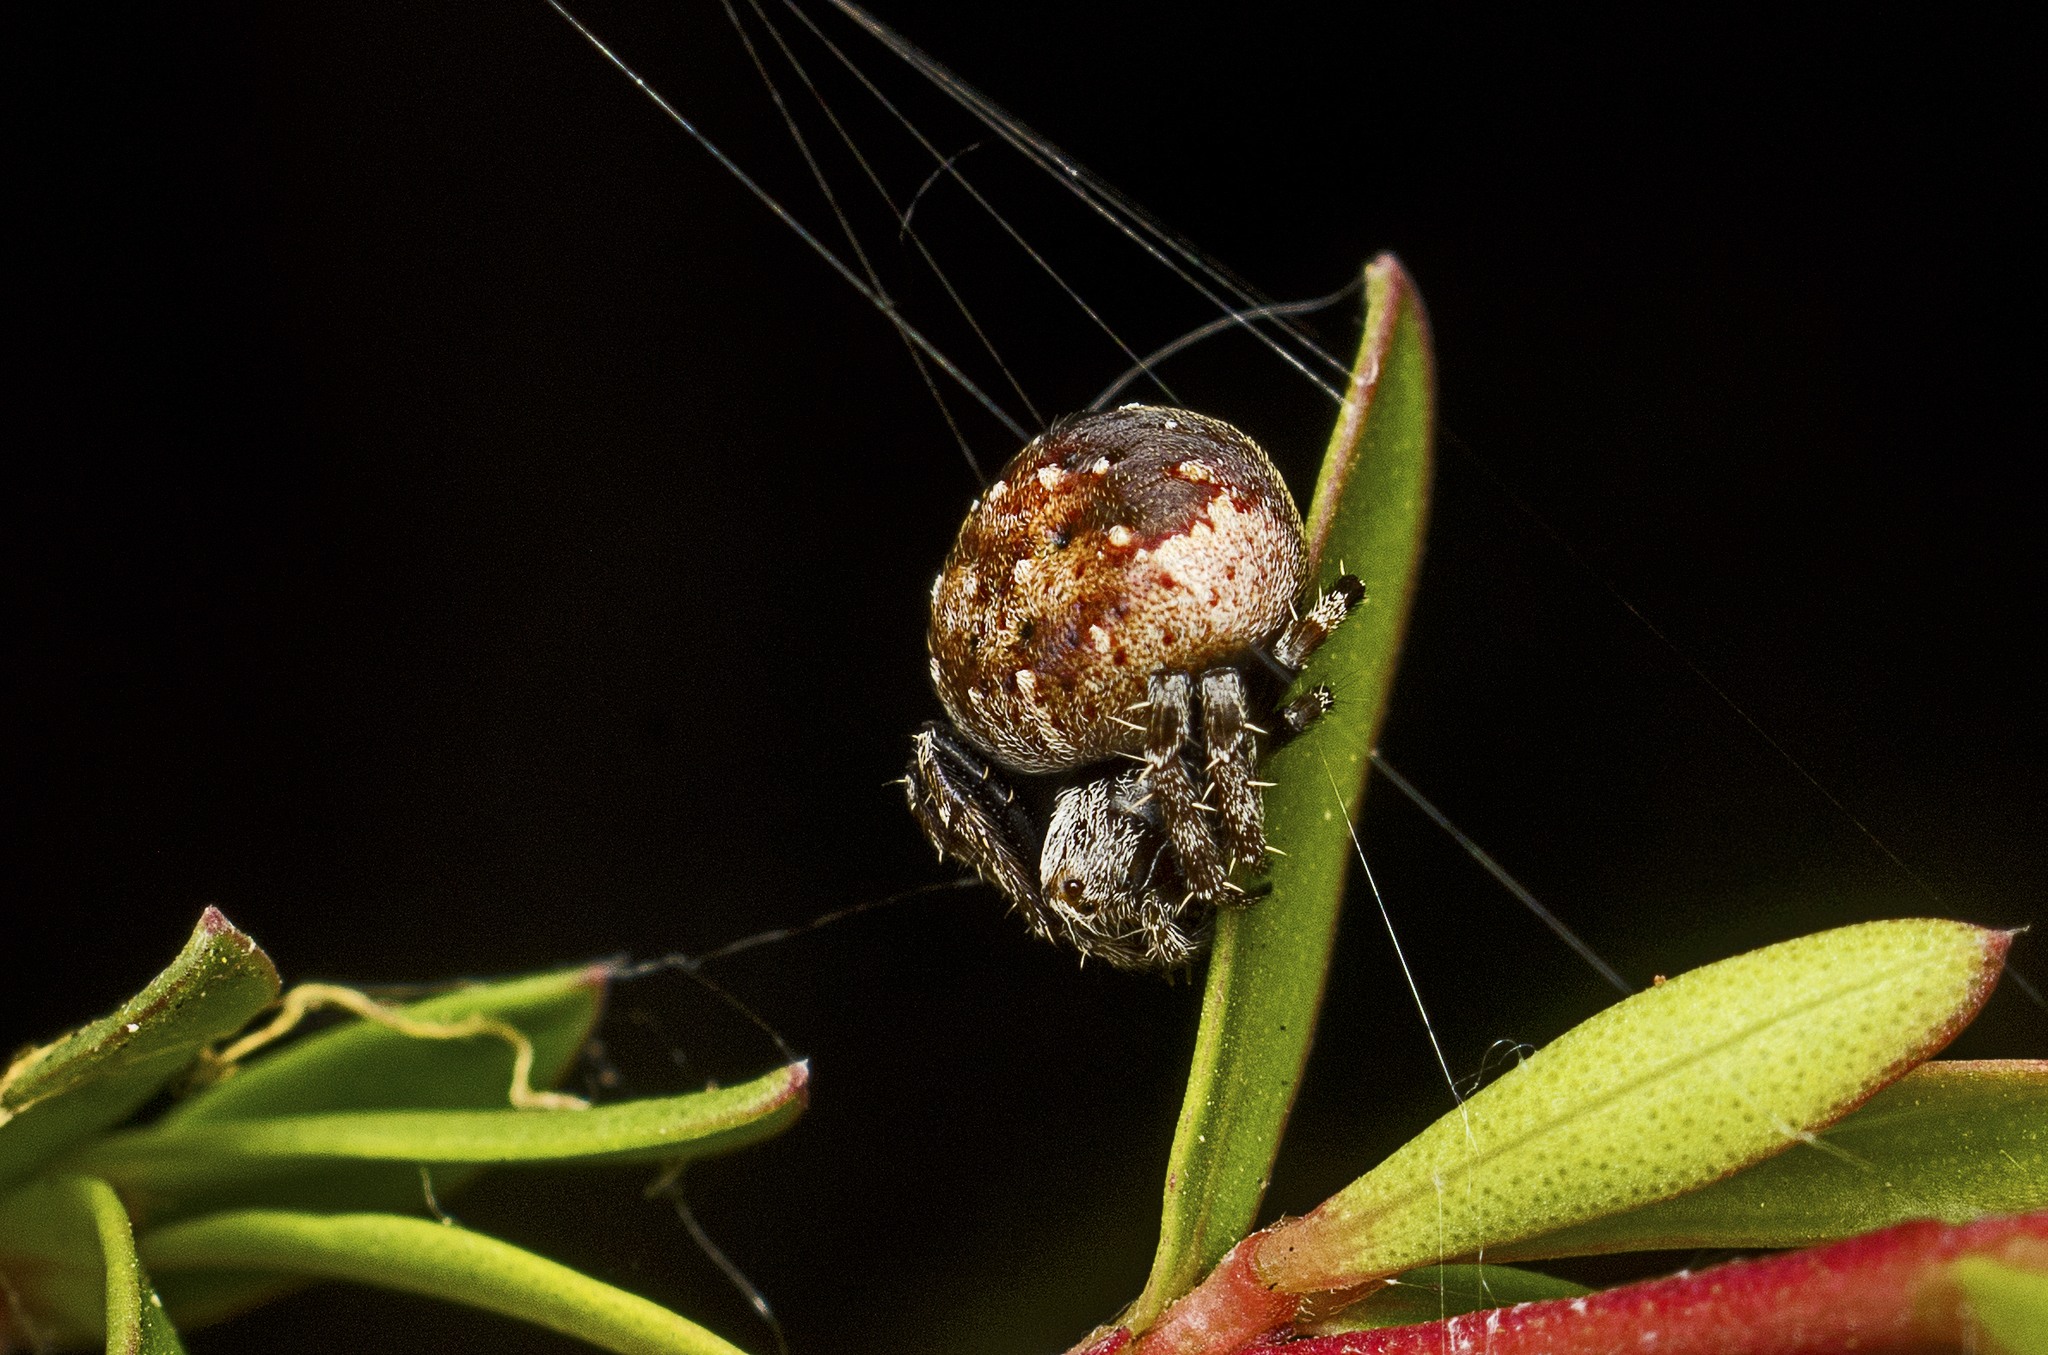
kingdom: Animalia
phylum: Arthropoda
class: Arachnida
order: Araneae
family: Araneidae
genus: Araneus
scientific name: Araneus rotundulus
